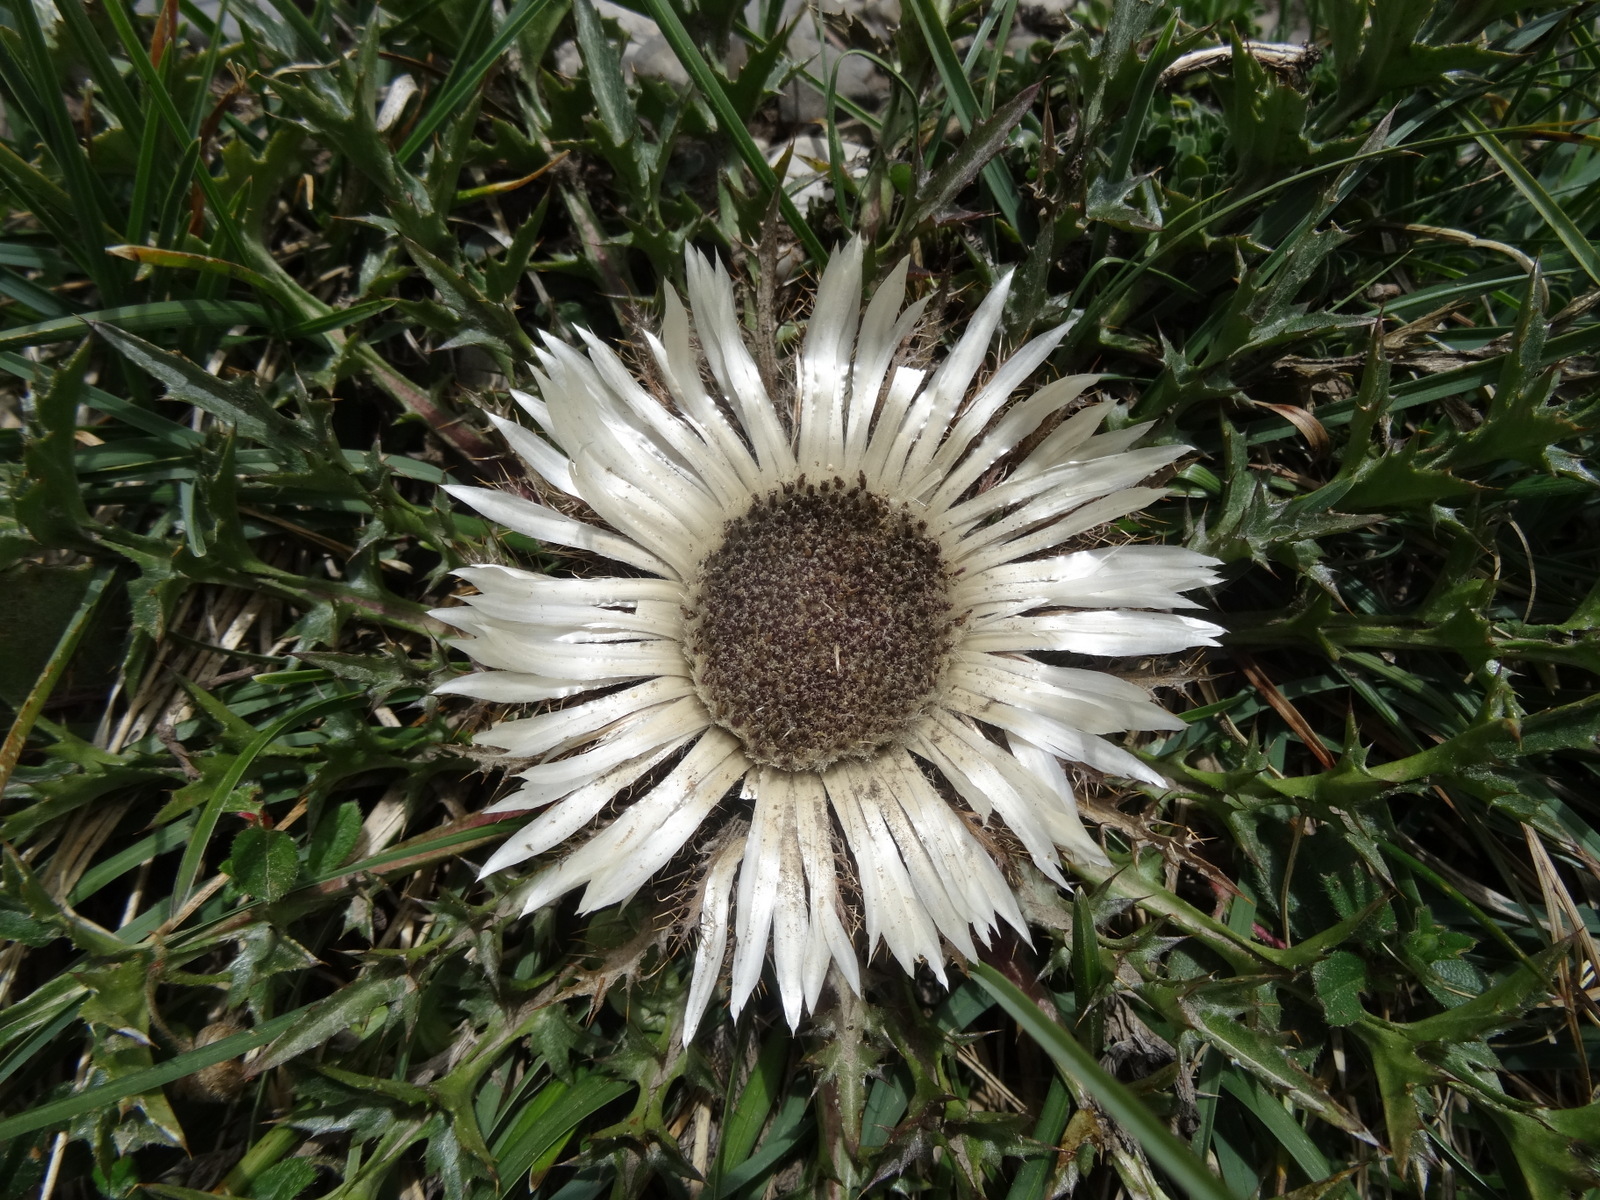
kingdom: Plantae
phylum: Tracheophyta
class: Magnoliopsida
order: Asterales
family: Asteraceae
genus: Carlina
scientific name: Carlina acaulis
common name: Stemless carline thistle
